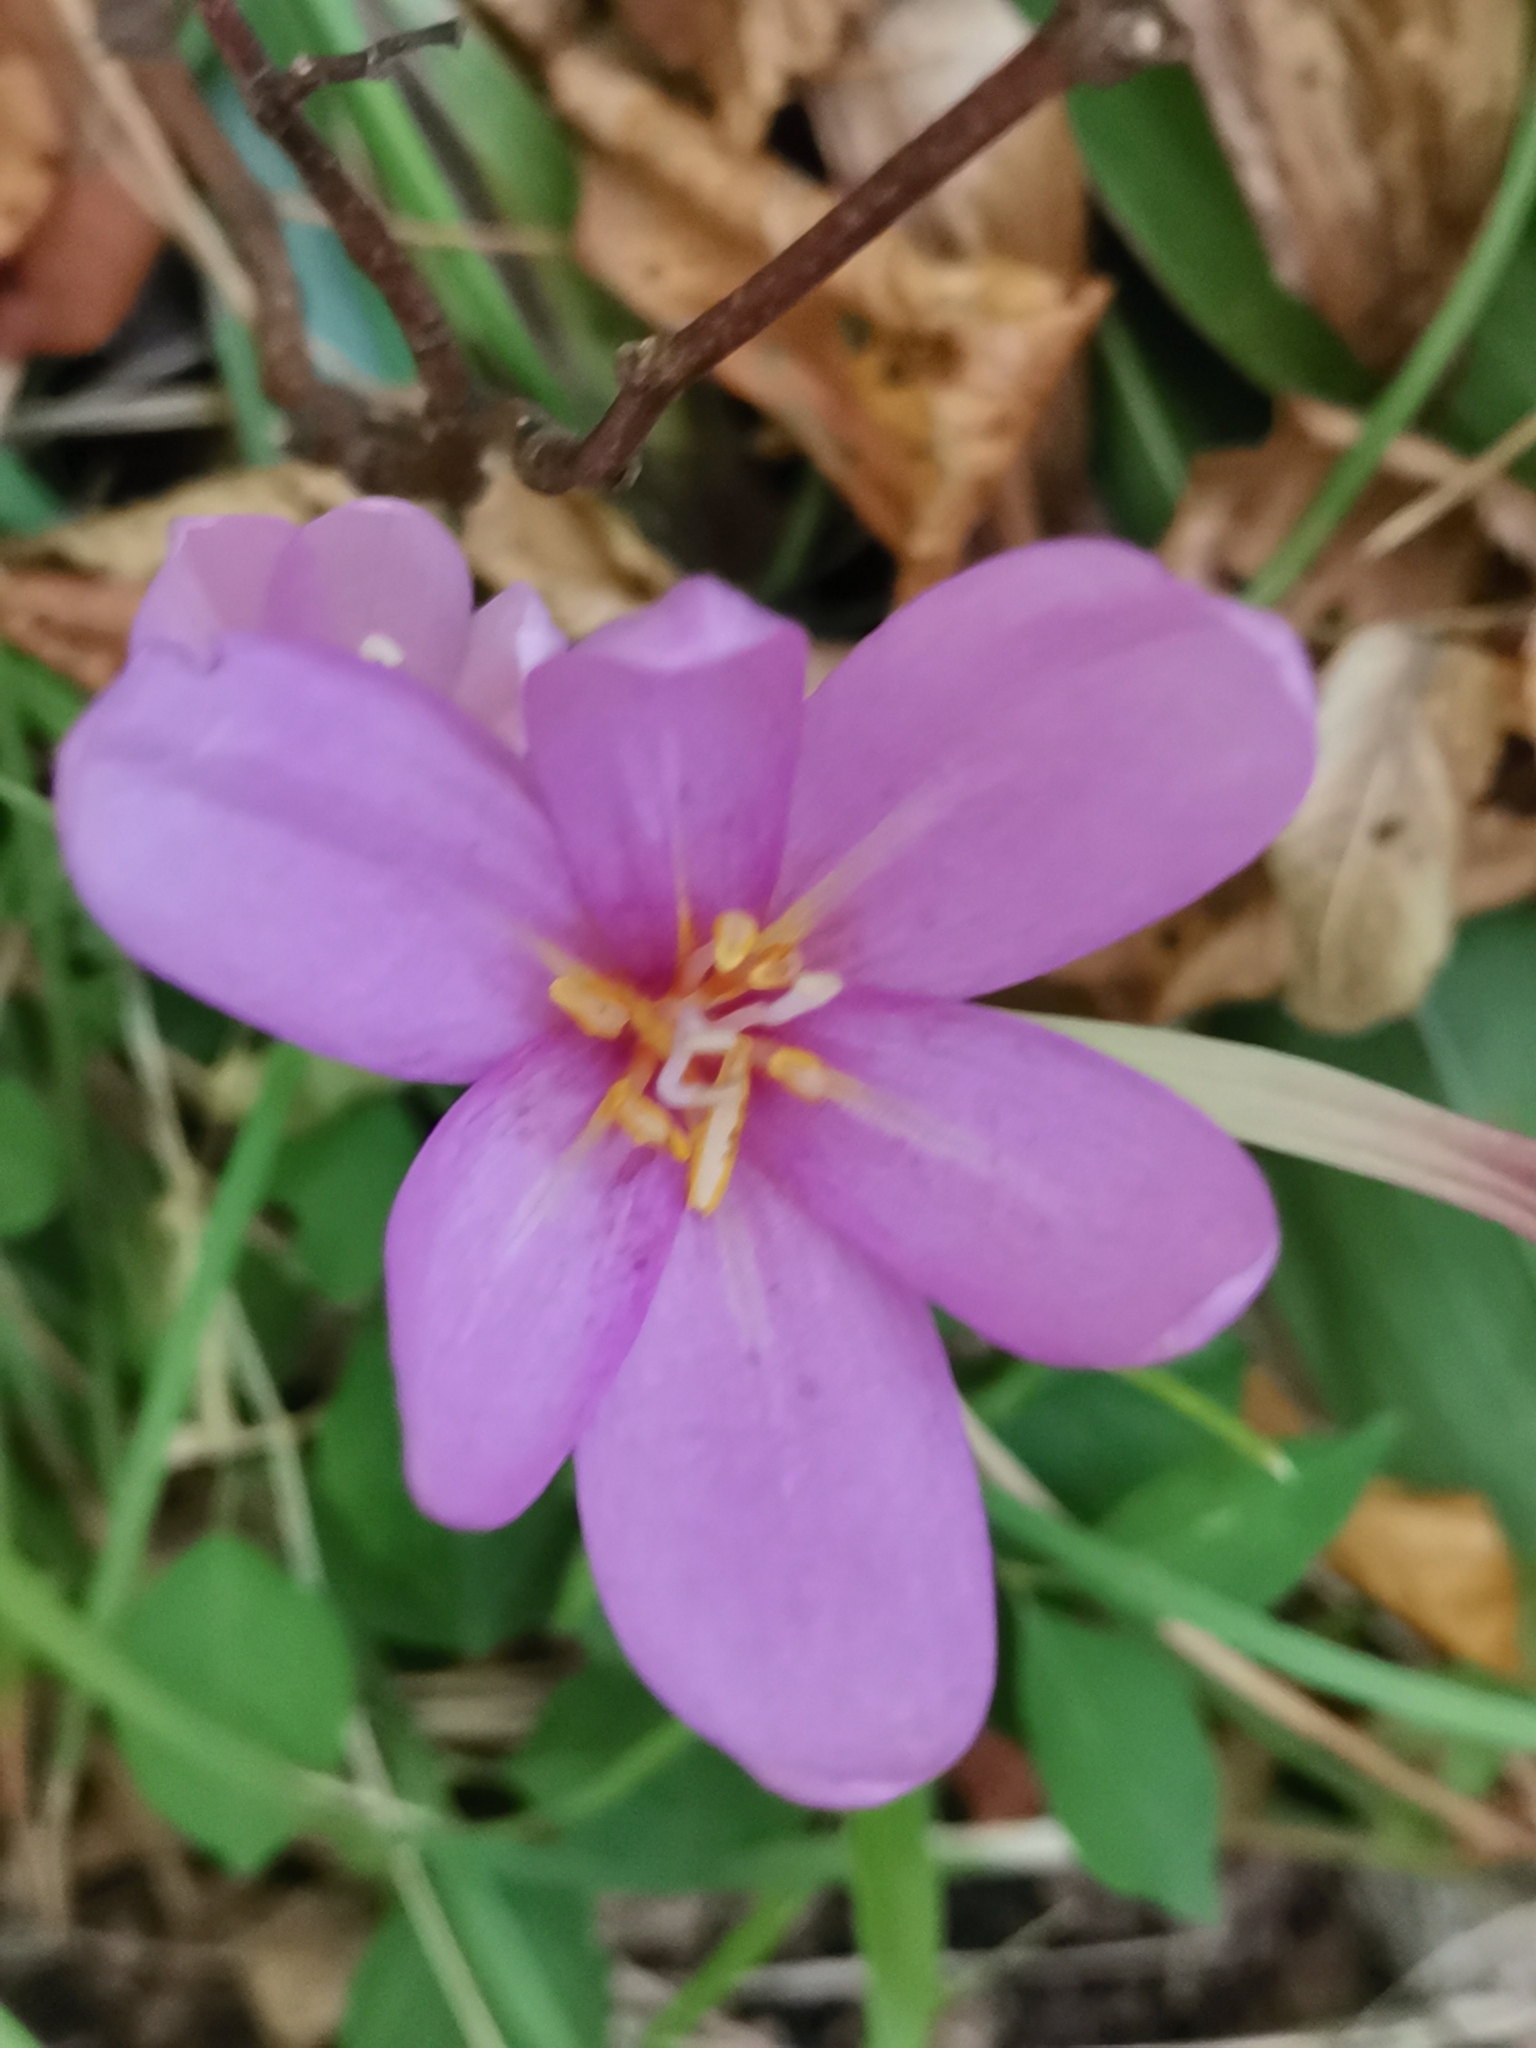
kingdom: Plantae
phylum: Tracheophyta
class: Liliopsida
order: Liliales
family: Colchicaceae
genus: Colchicum
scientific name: Colchicum autumnale
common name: Autumn crocus
